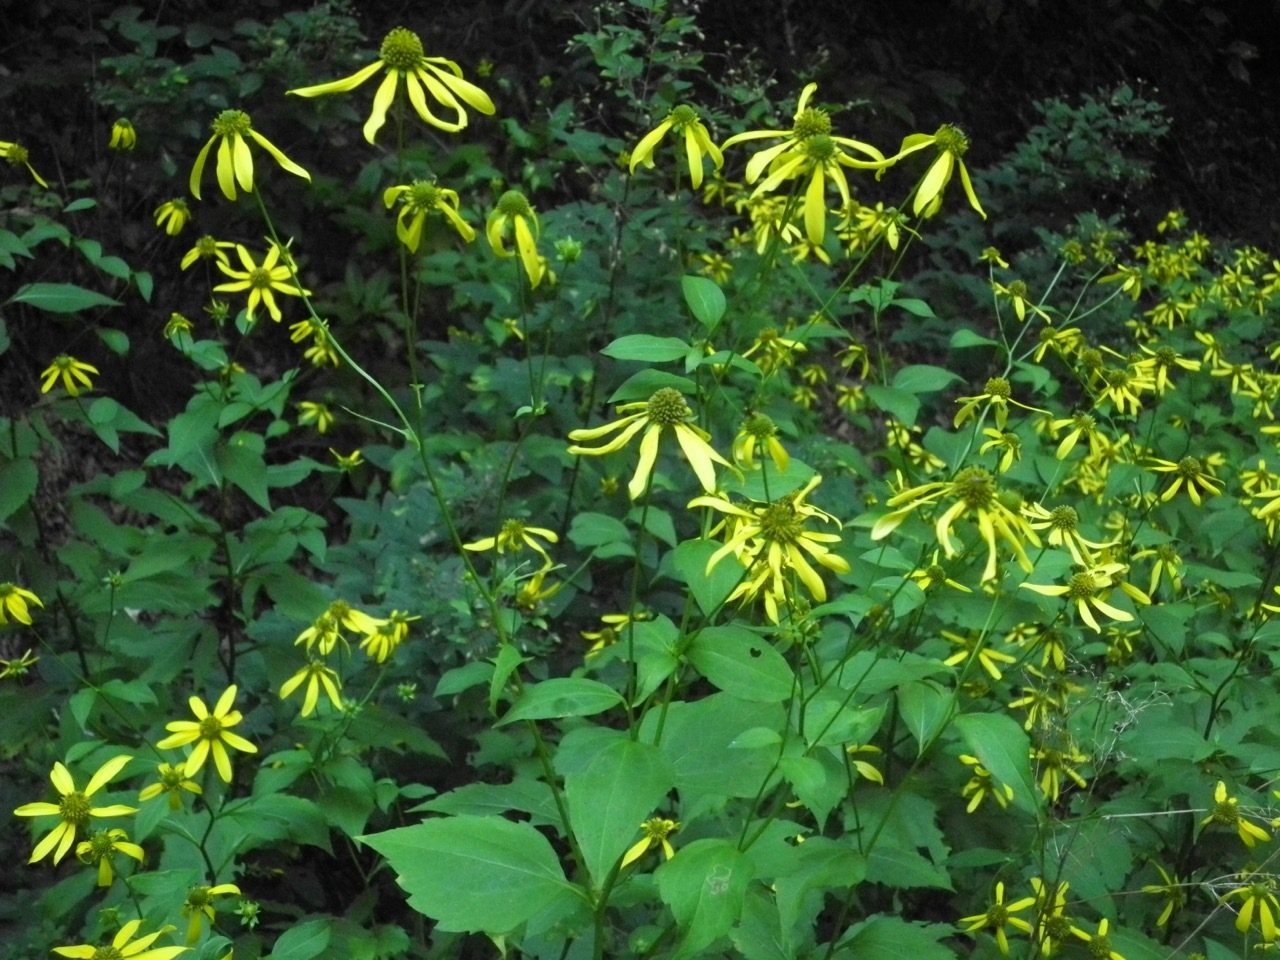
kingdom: Plantae
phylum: Tracheophyta
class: Magnoliopsida
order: Asterales
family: Asteraceae
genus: Rudbeckia
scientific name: Rudbeckia laciniata
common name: Coneflower
